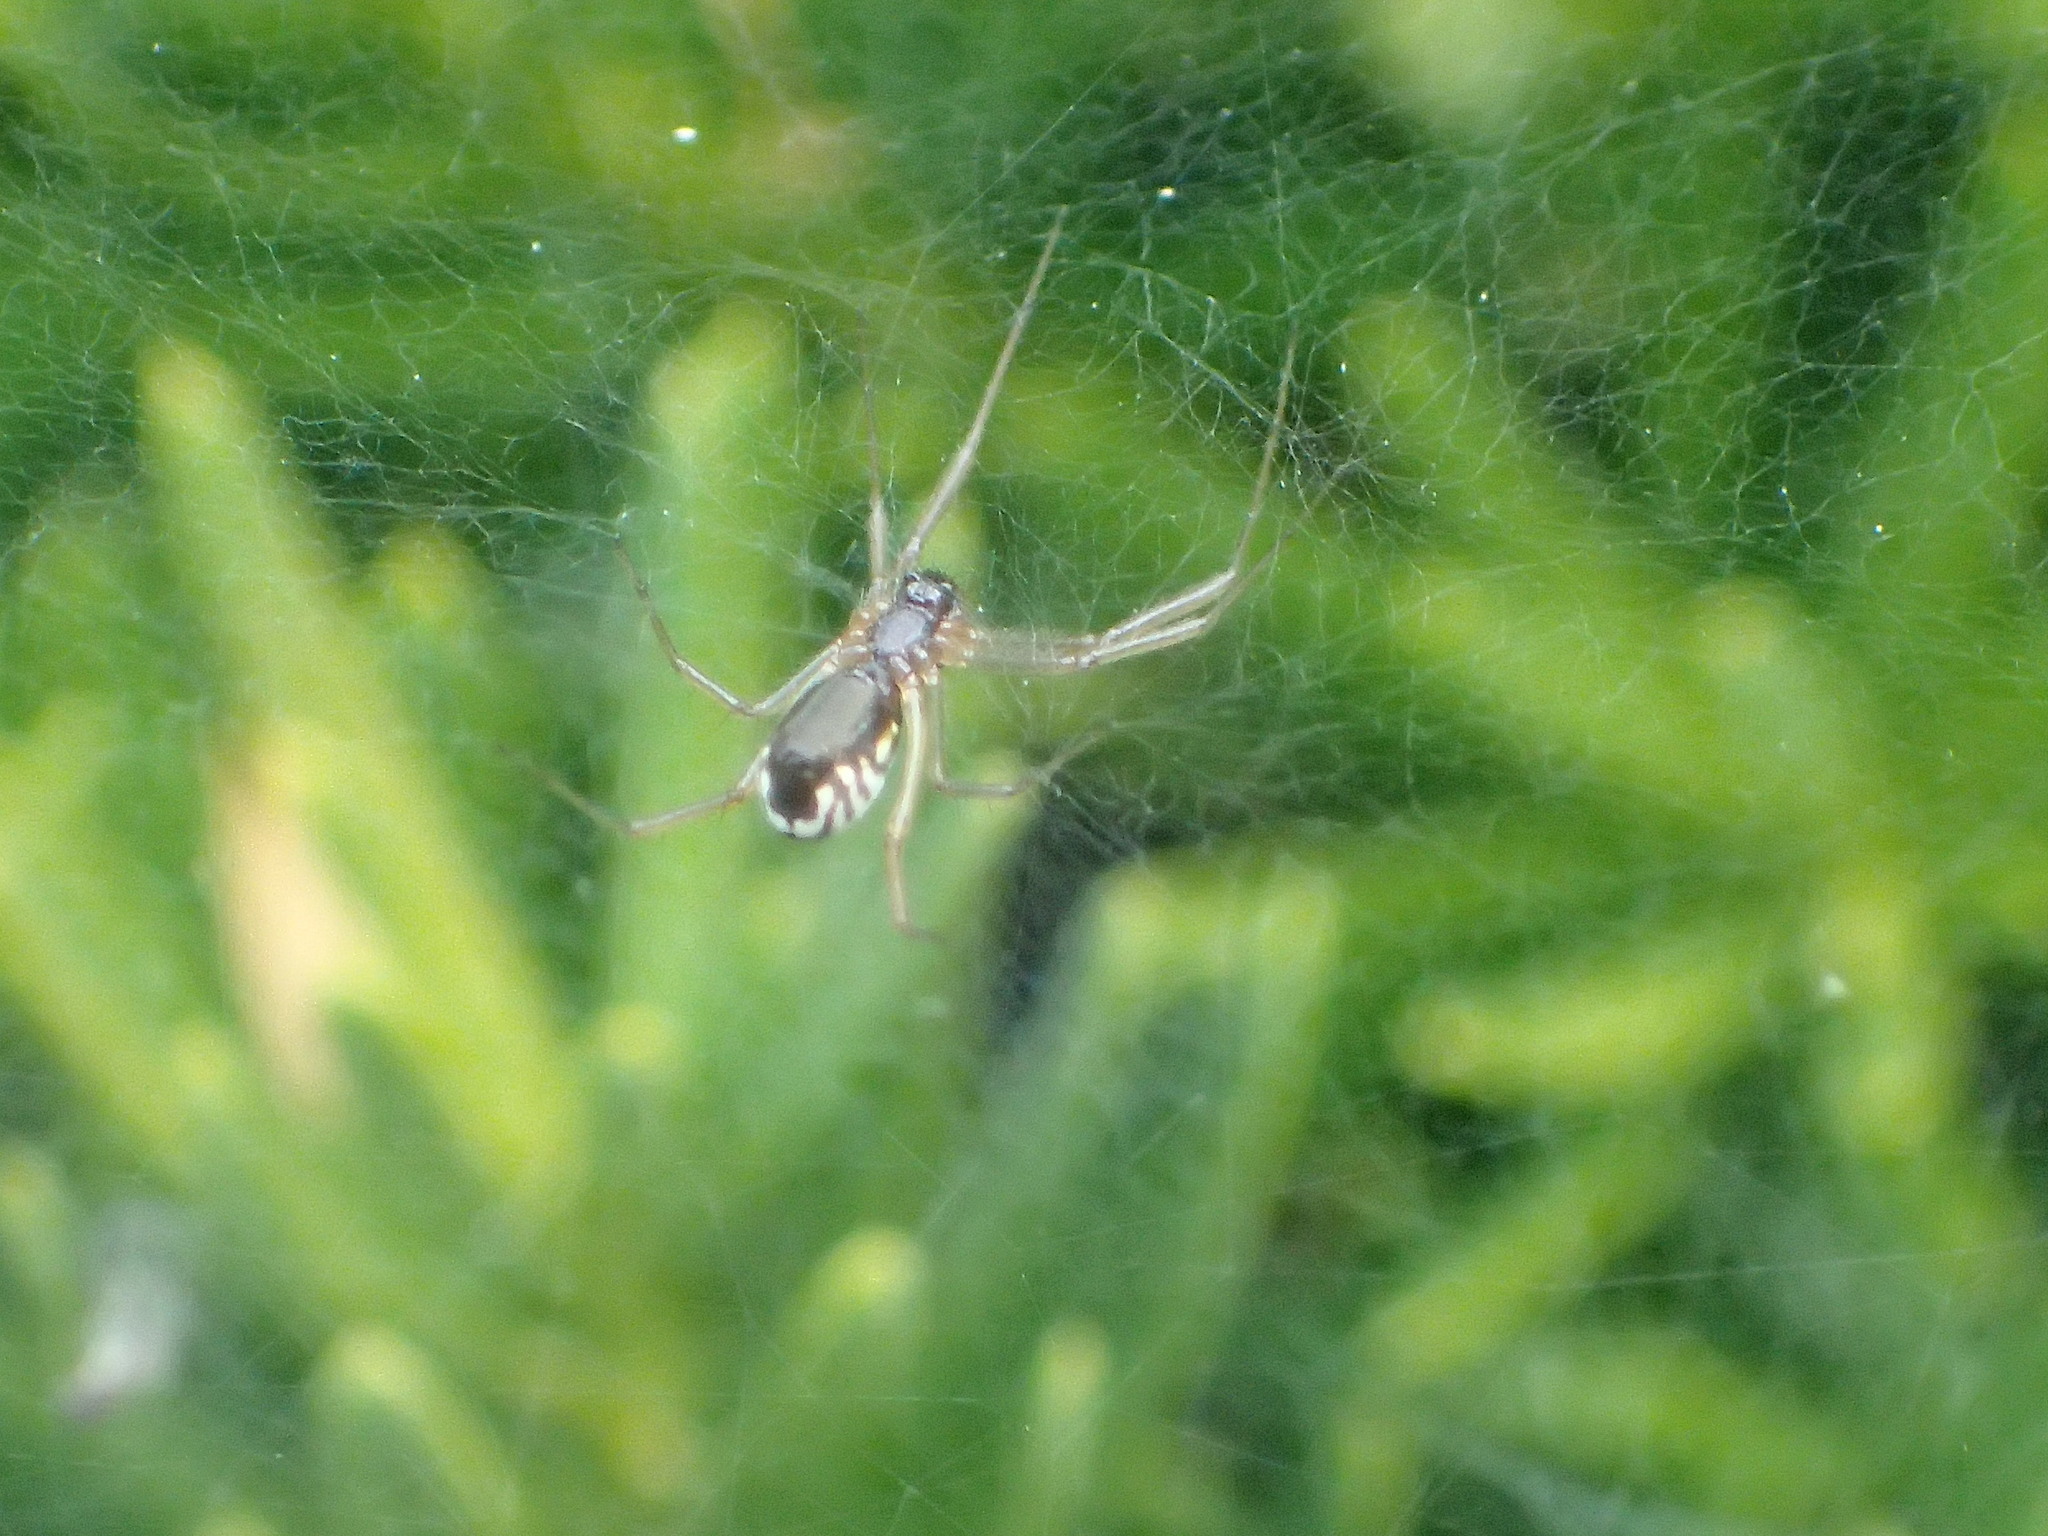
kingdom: Animalia
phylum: Arthropoda
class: Arachnida
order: Araneae
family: Linyphiidae
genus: Frontinella
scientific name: Frontinella pyramitela
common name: Bowl-and-doily spider
